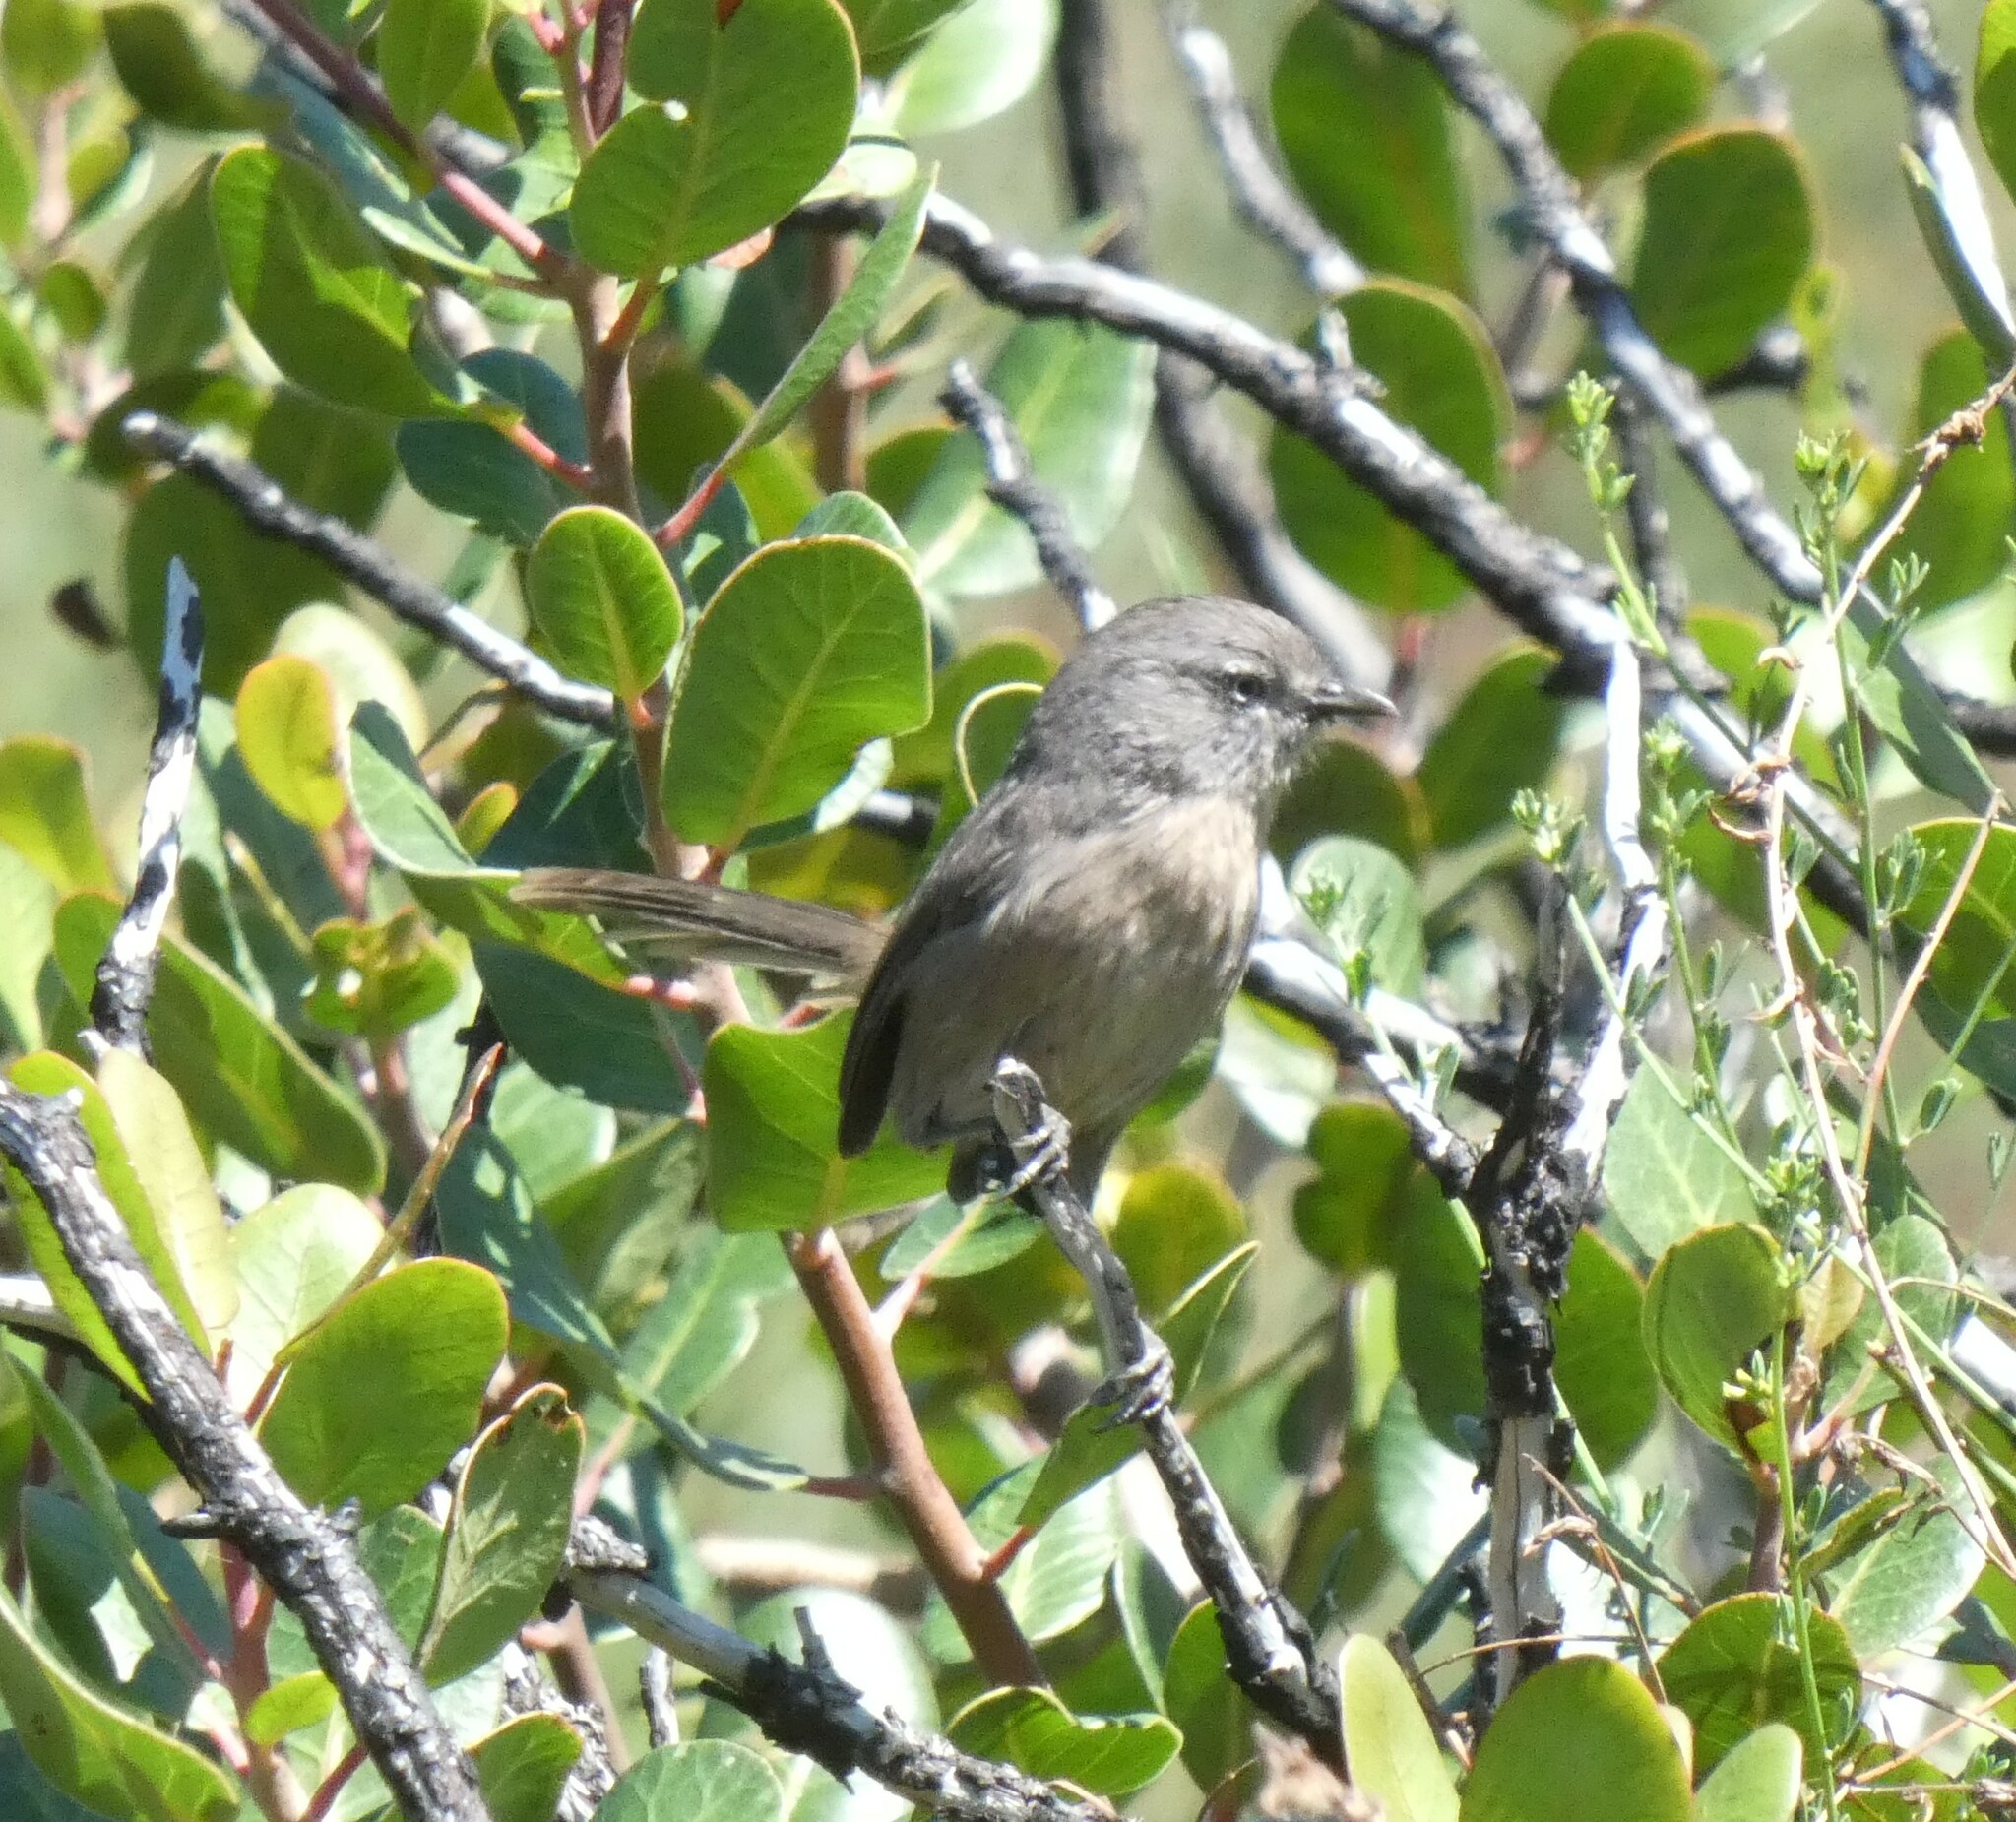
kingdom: Animalia
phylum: Chordata
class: Aves
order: Passeriformes
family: Sylviidae
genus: Chamaea
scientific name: Chamaea fasciata
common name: Wrentit
